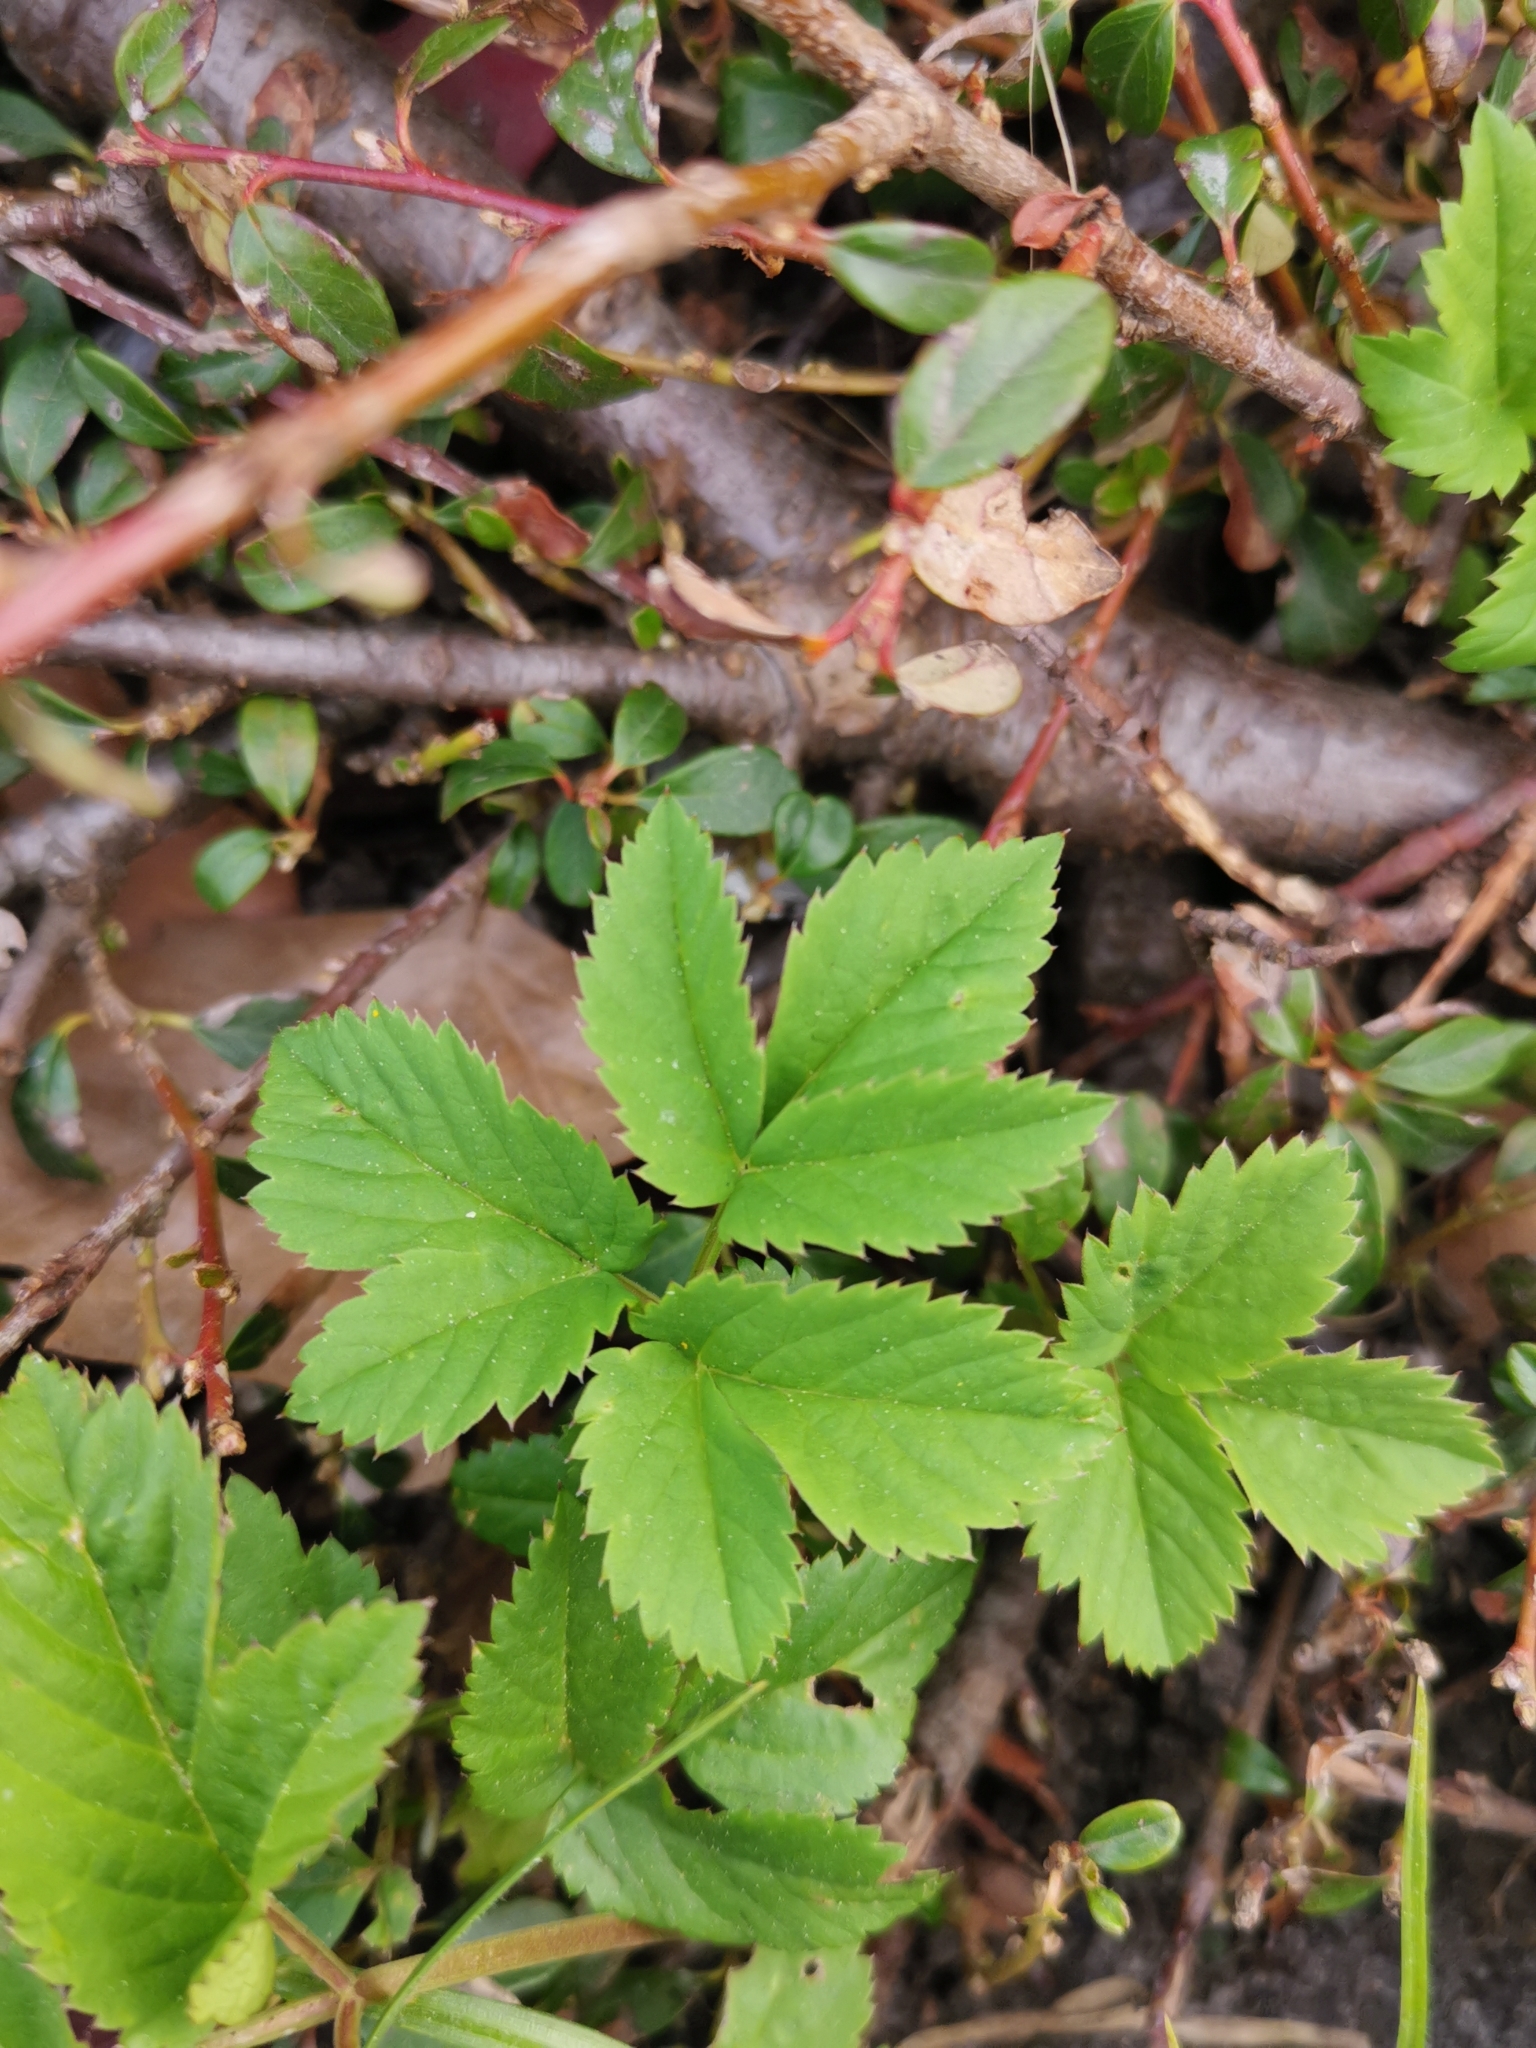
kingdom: Plantae
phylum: Tracheophyta
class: Magnoliopsida
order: Apiales
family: Apiaceae
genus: Aegopodium
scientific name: Aegopodium podagraria
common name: Ground-elder
